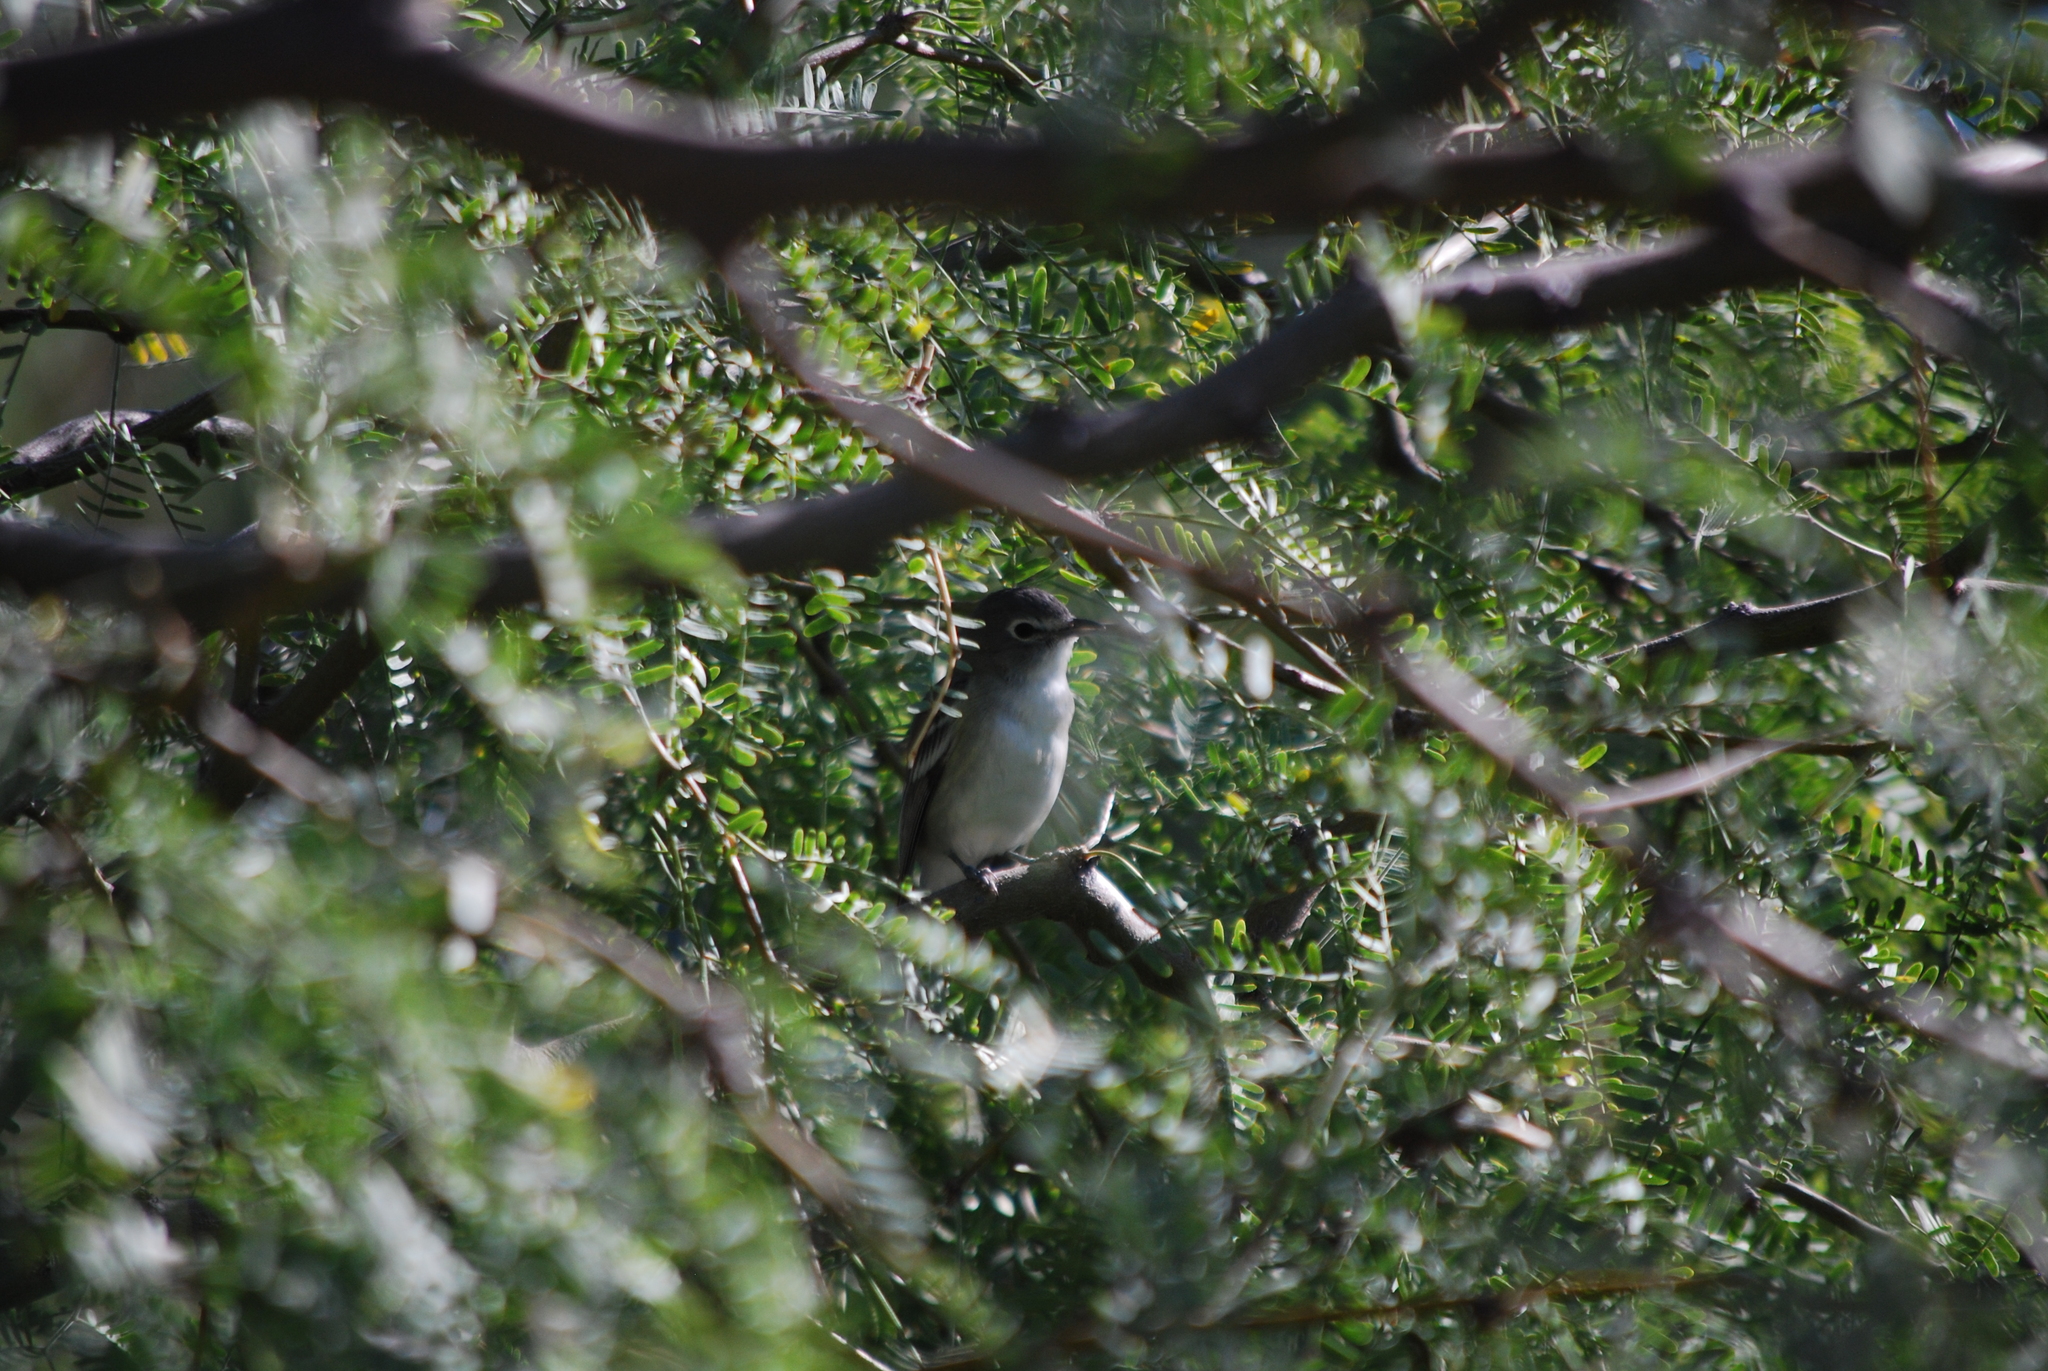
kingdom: Animalia
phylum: Chordata
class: Aves
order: Passeriformes
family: Vireonidae
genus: Vireo
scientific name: Vireo plumbeus
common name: Plumbeous vireo
